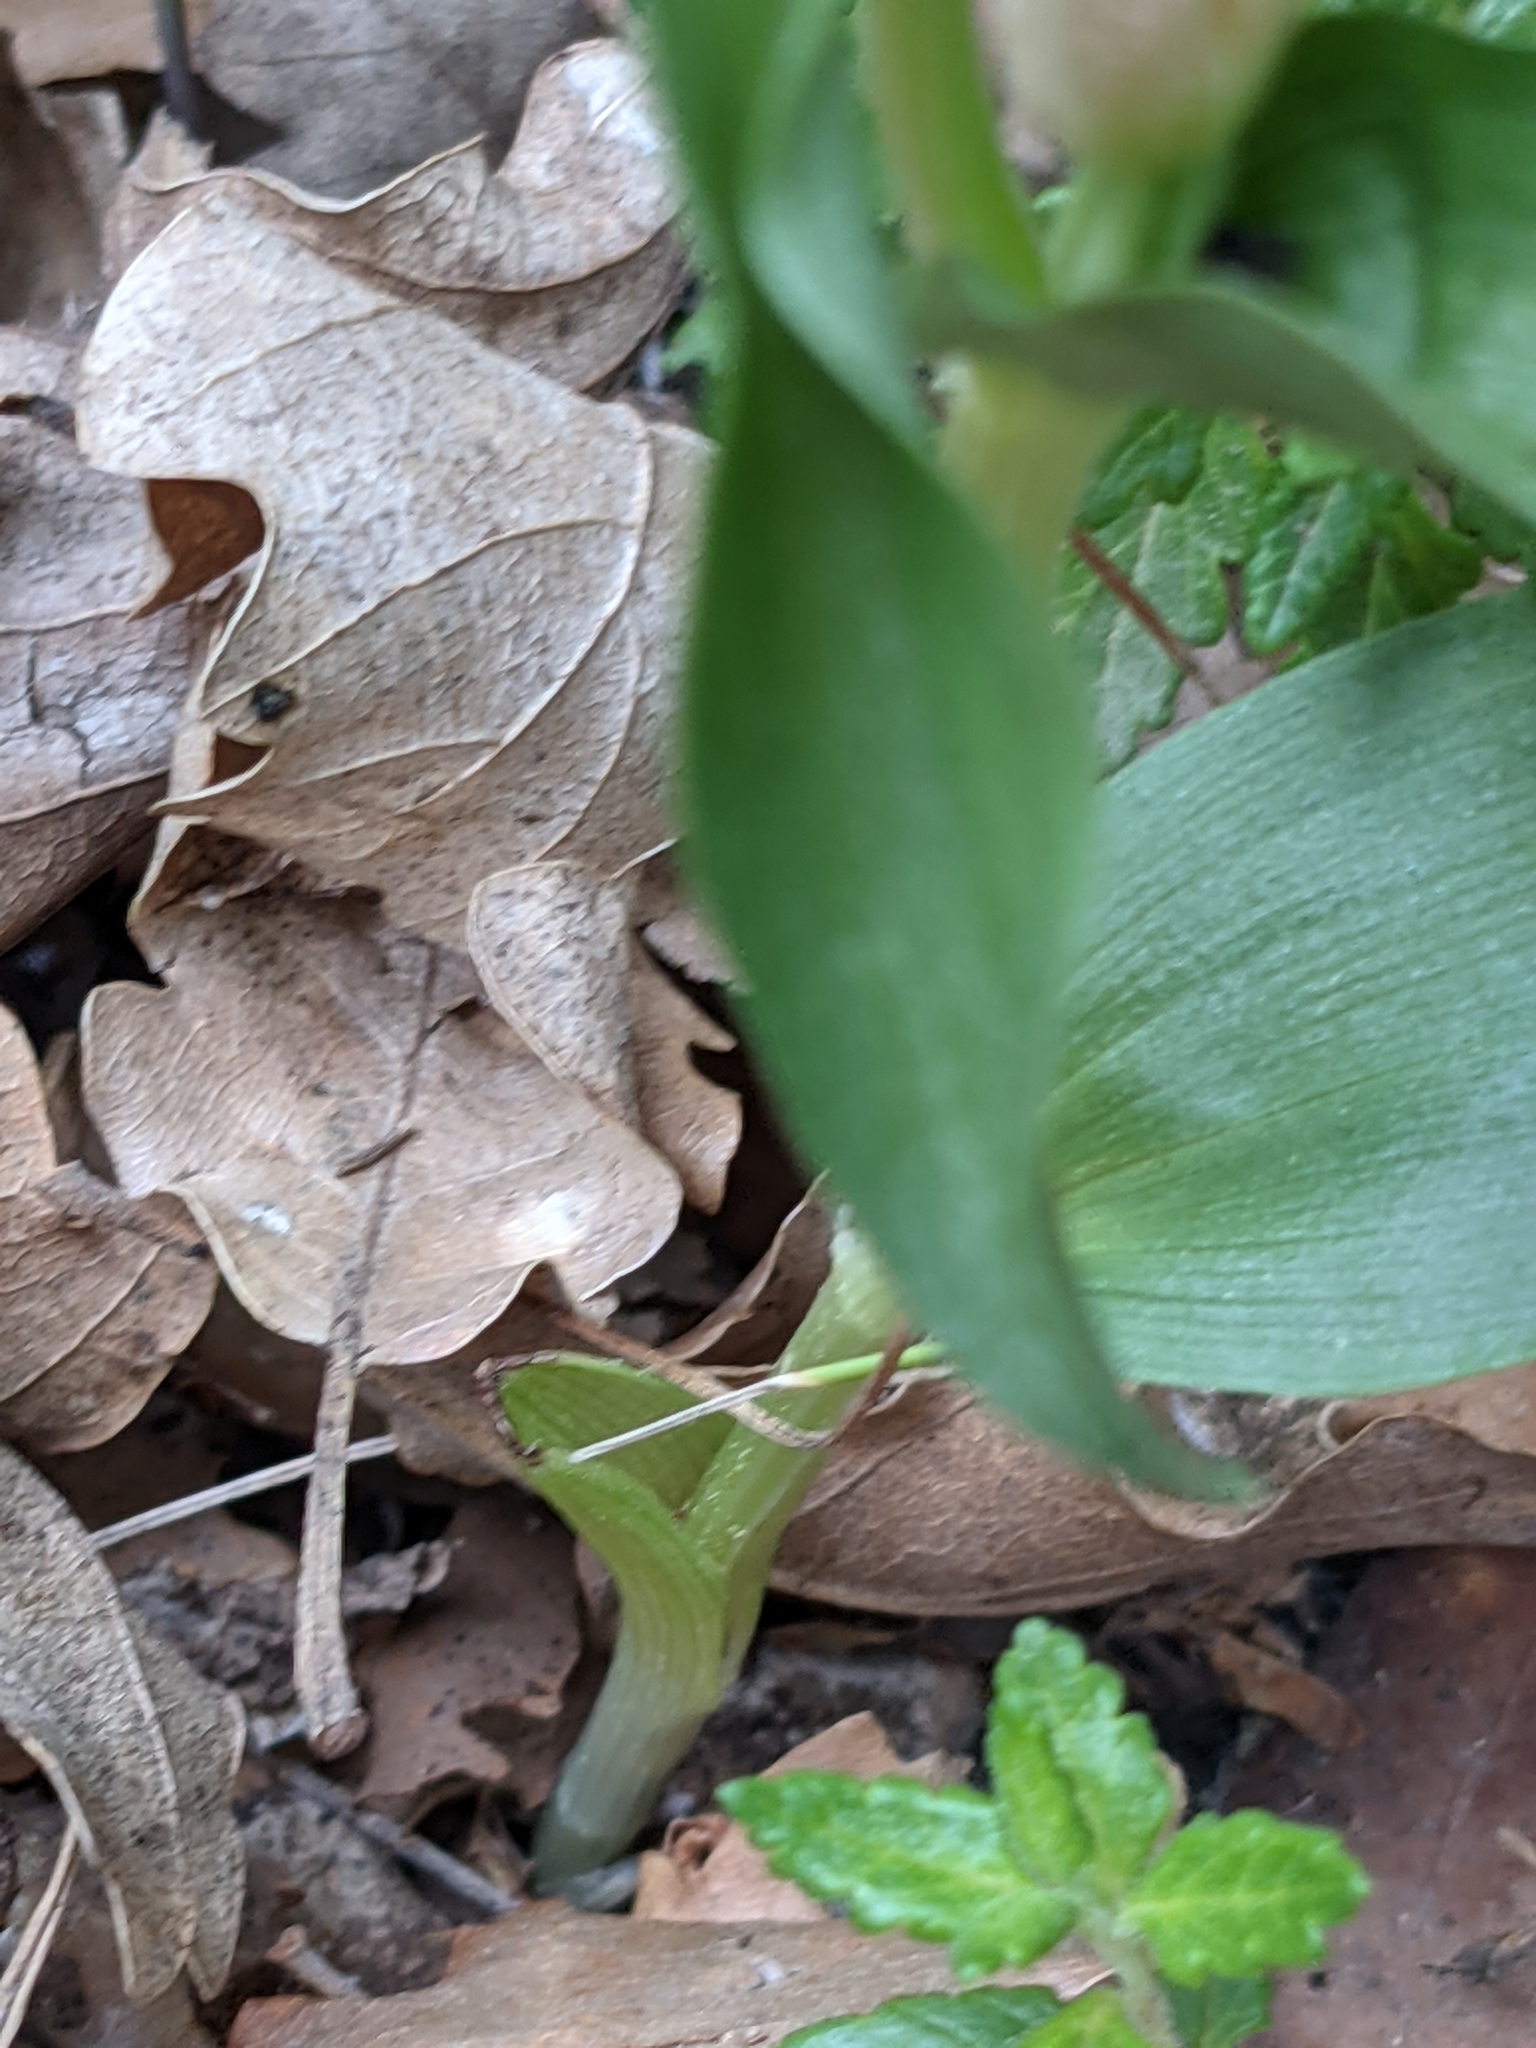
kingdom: Plantae
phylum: Tracheophyta
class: Liliopsida
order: Asparagales
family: Orchidaceae
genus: Cephalanthera
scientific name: Cephalanthera damasonium
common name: White helleborine
